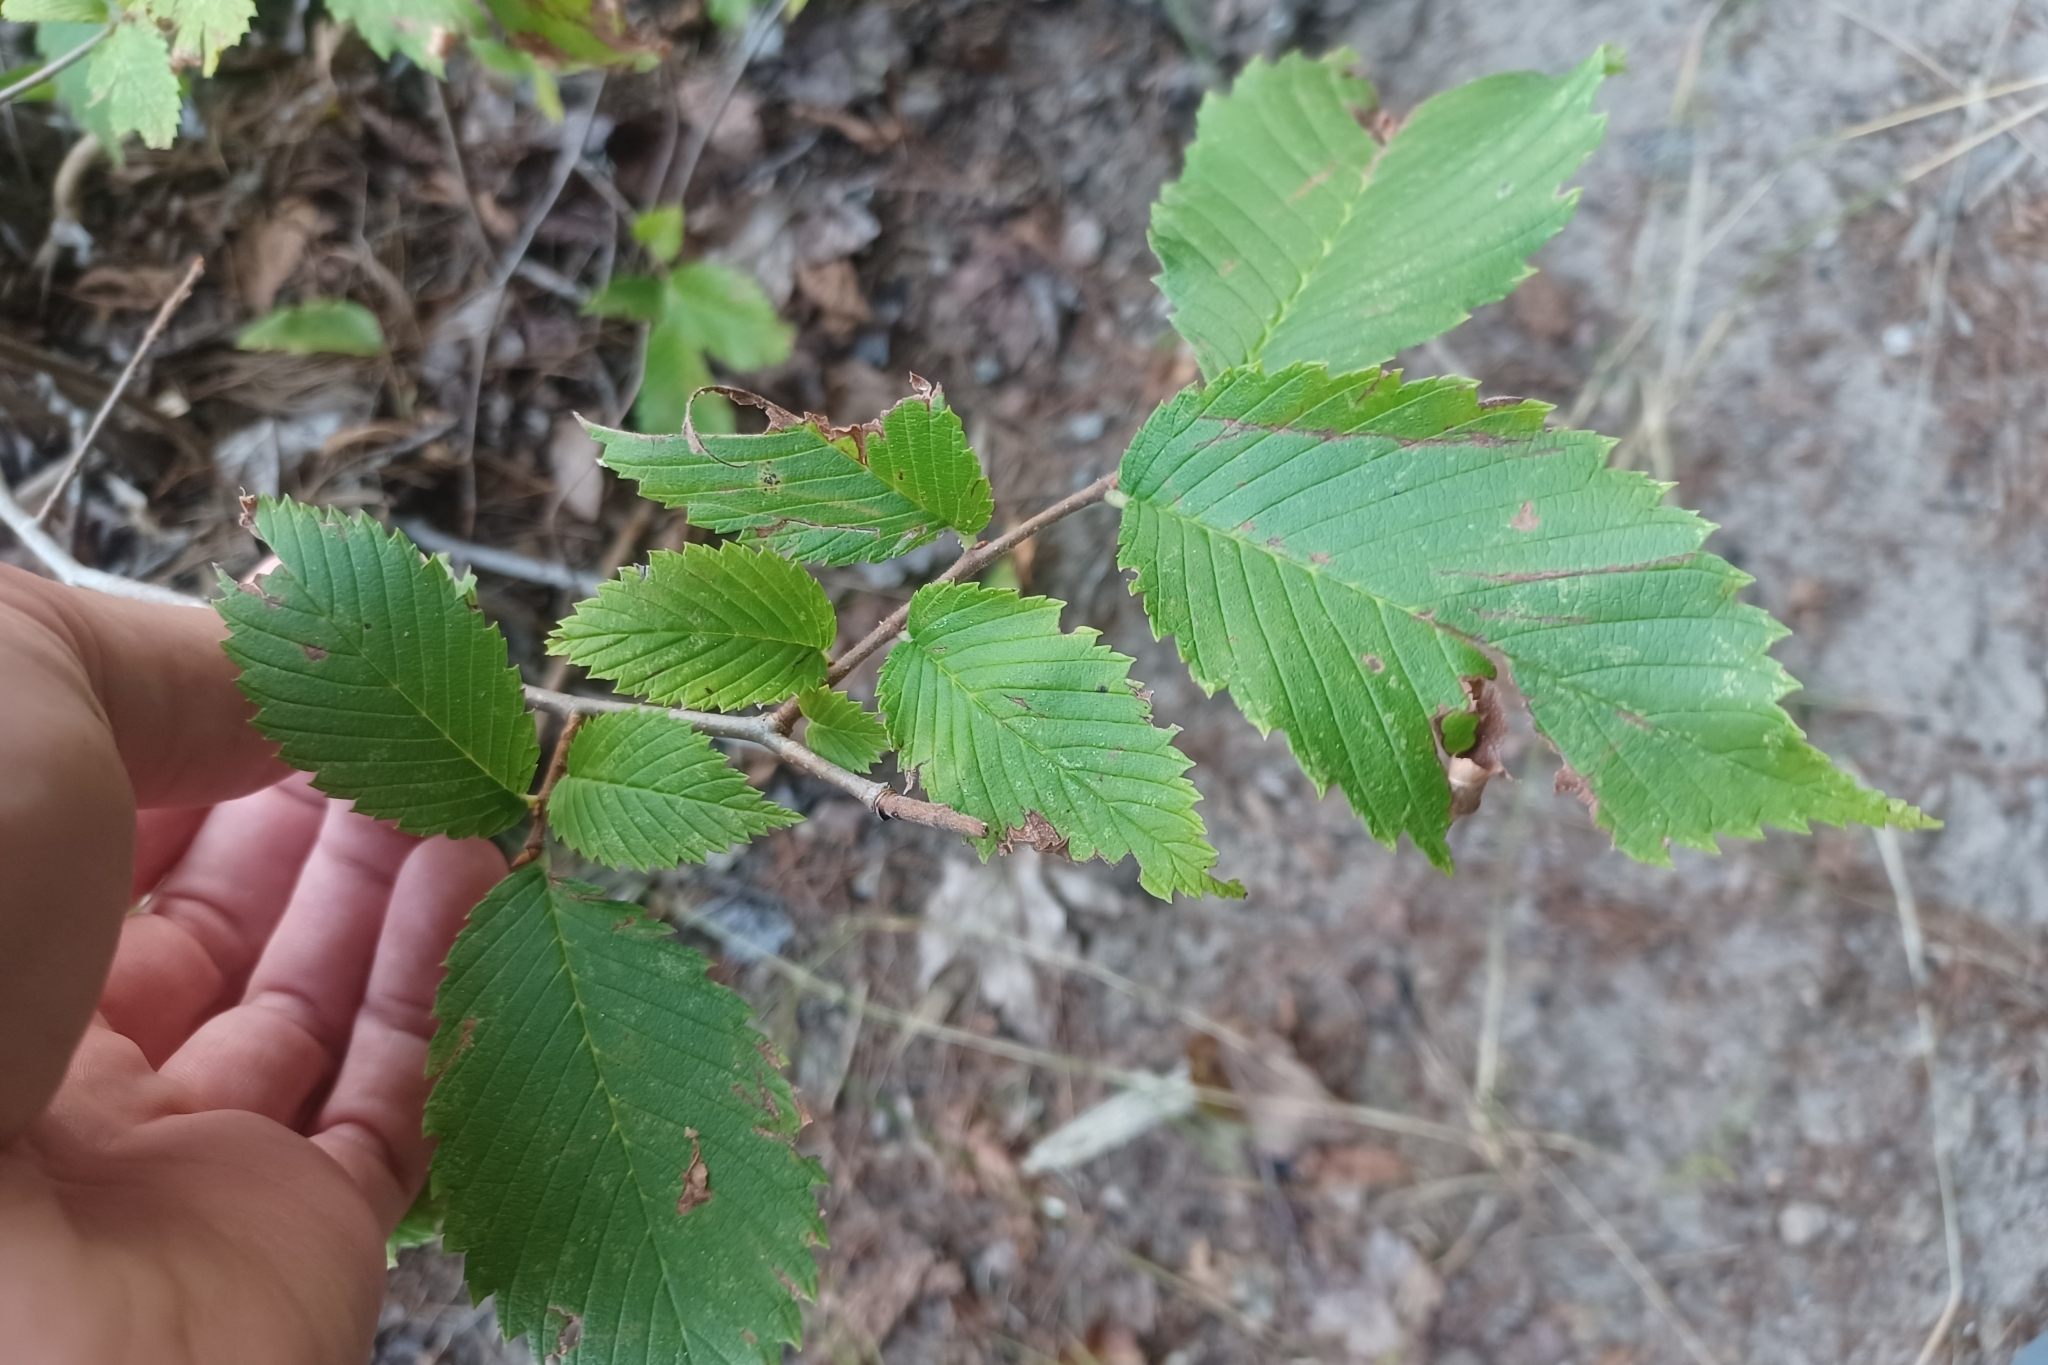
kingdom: Plantae
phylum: Tracheophyta
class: Magnoliopsida
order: Rosales
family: Ulmaceae
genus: Ulmus
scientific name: Ulmus americana
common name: American elm
